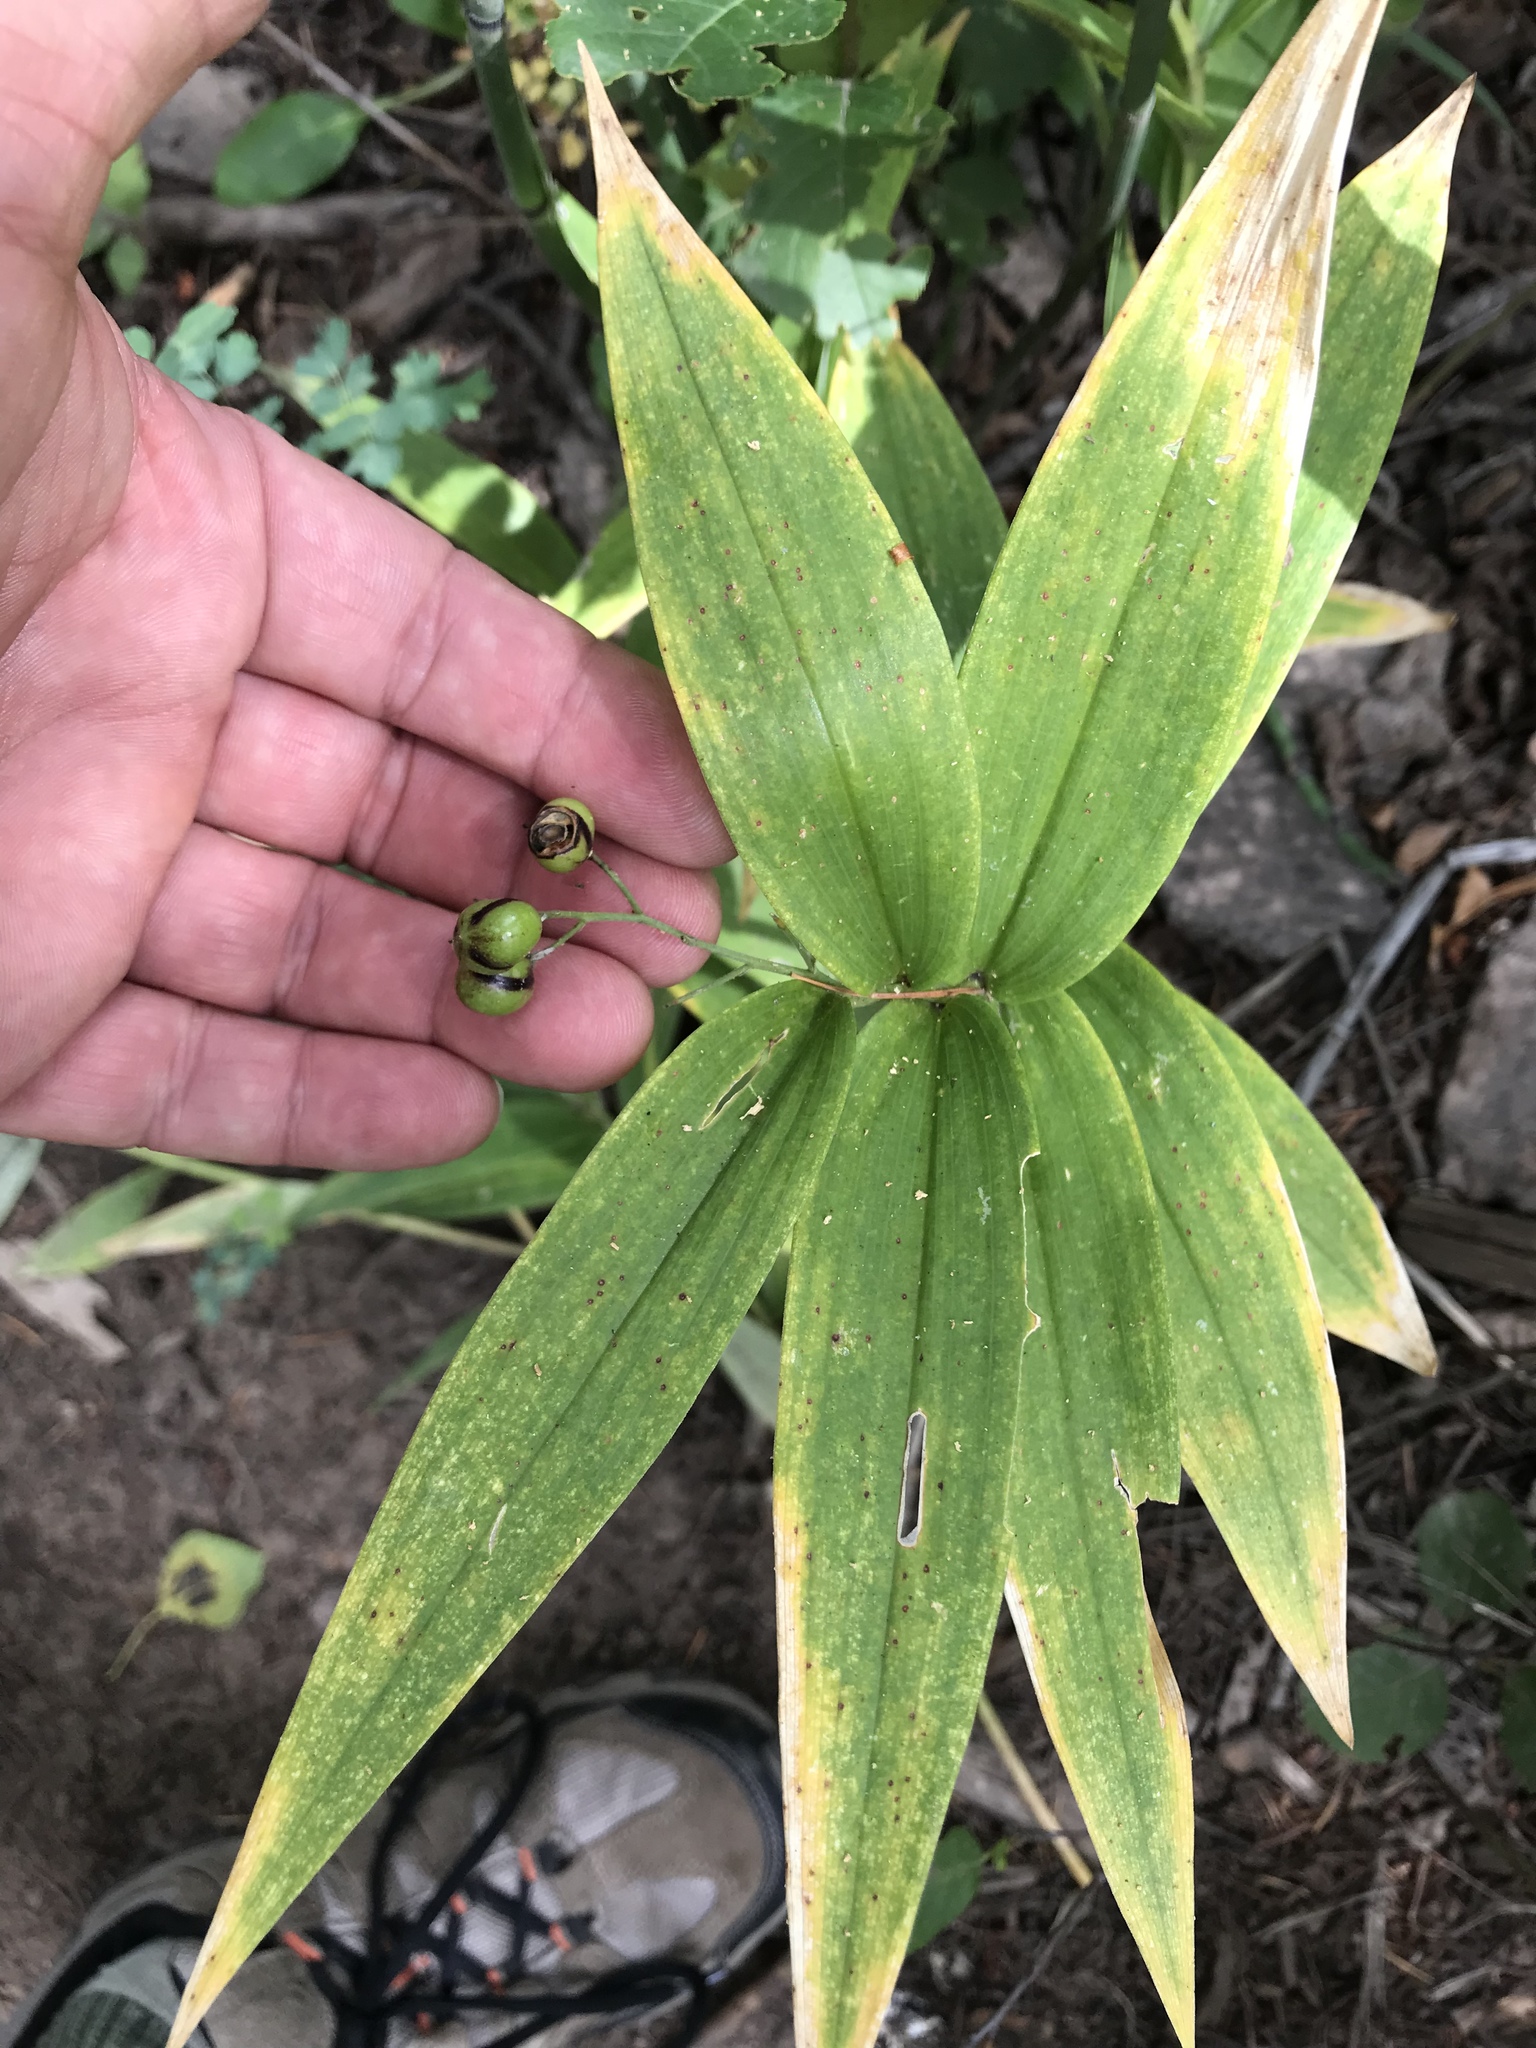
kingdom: Plantae
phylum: Tracheophyta
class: Liliopsida
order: Asparagales
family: Asparagaceae
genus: Maianthemum
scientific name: Maianthemum stellatum
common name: Little false solomon's seal
